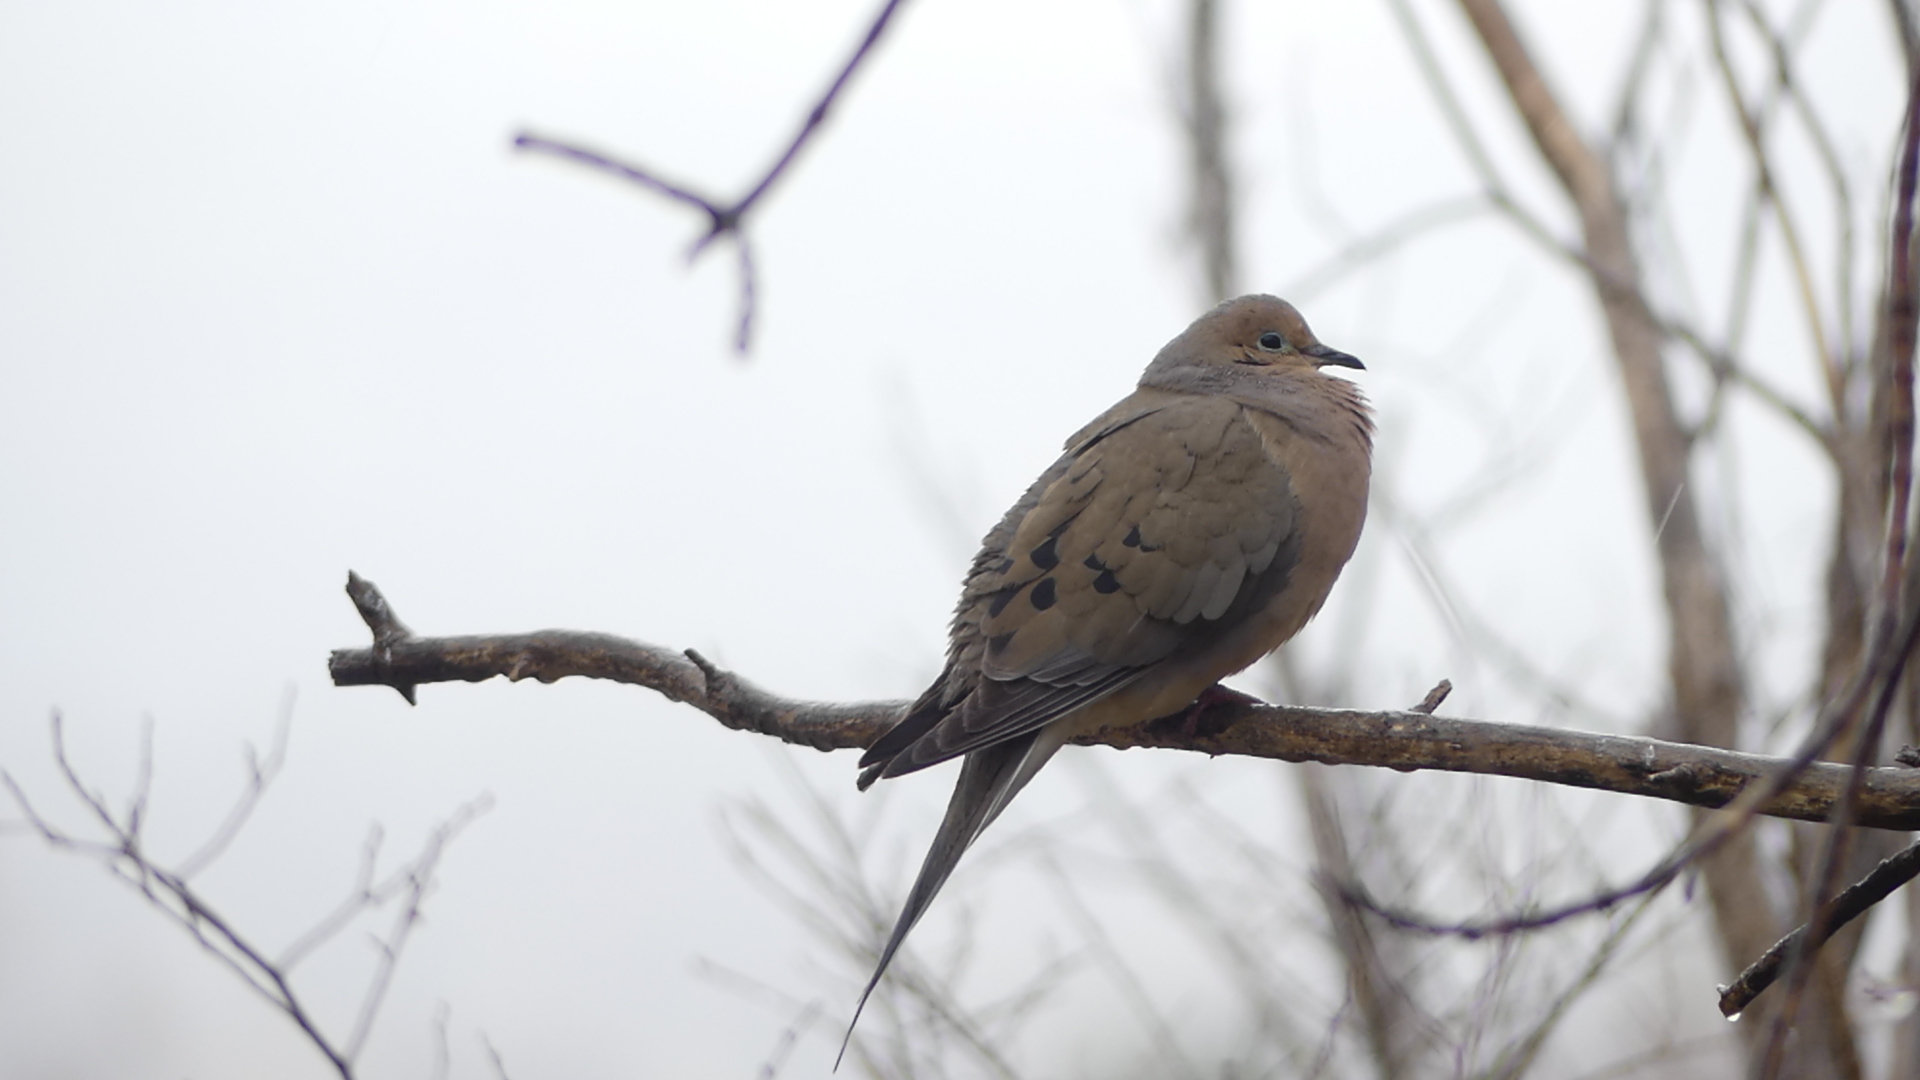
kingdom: Animalia
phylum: Chordata
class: Aves
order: Columbiformes
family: Columbidae
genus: Zenaida
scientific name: Zenaida macroura
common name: Mourning dove
